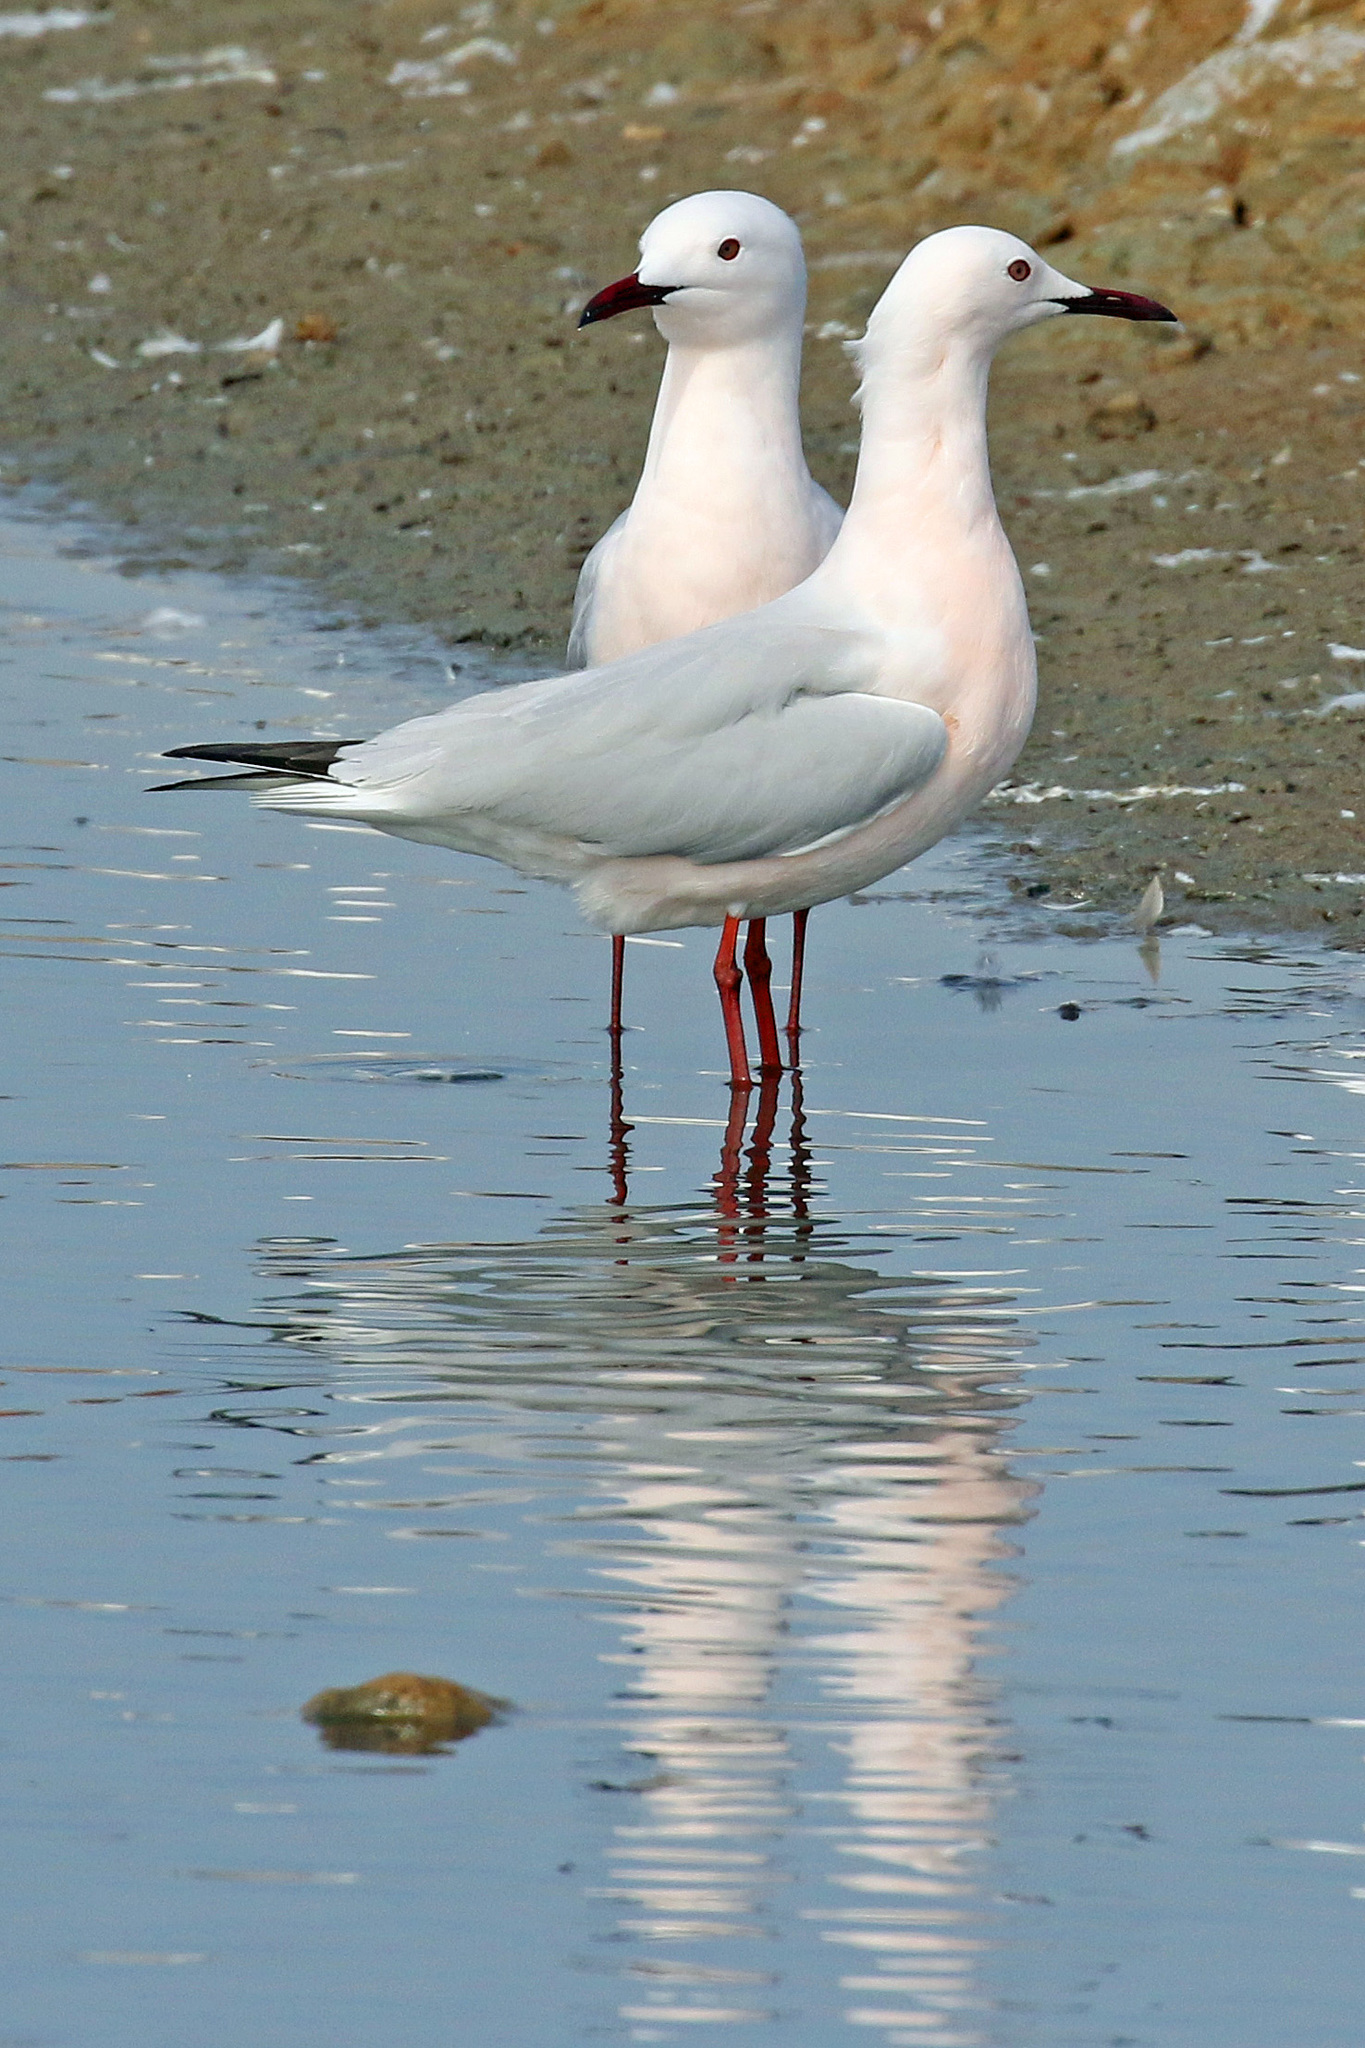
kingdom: Animalia
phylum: Chordata
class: Aves
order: Charadriiformes
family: Laridae
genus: Chroicocephalus
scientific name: Chroicocephalus genei
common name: Slender-billed gull
